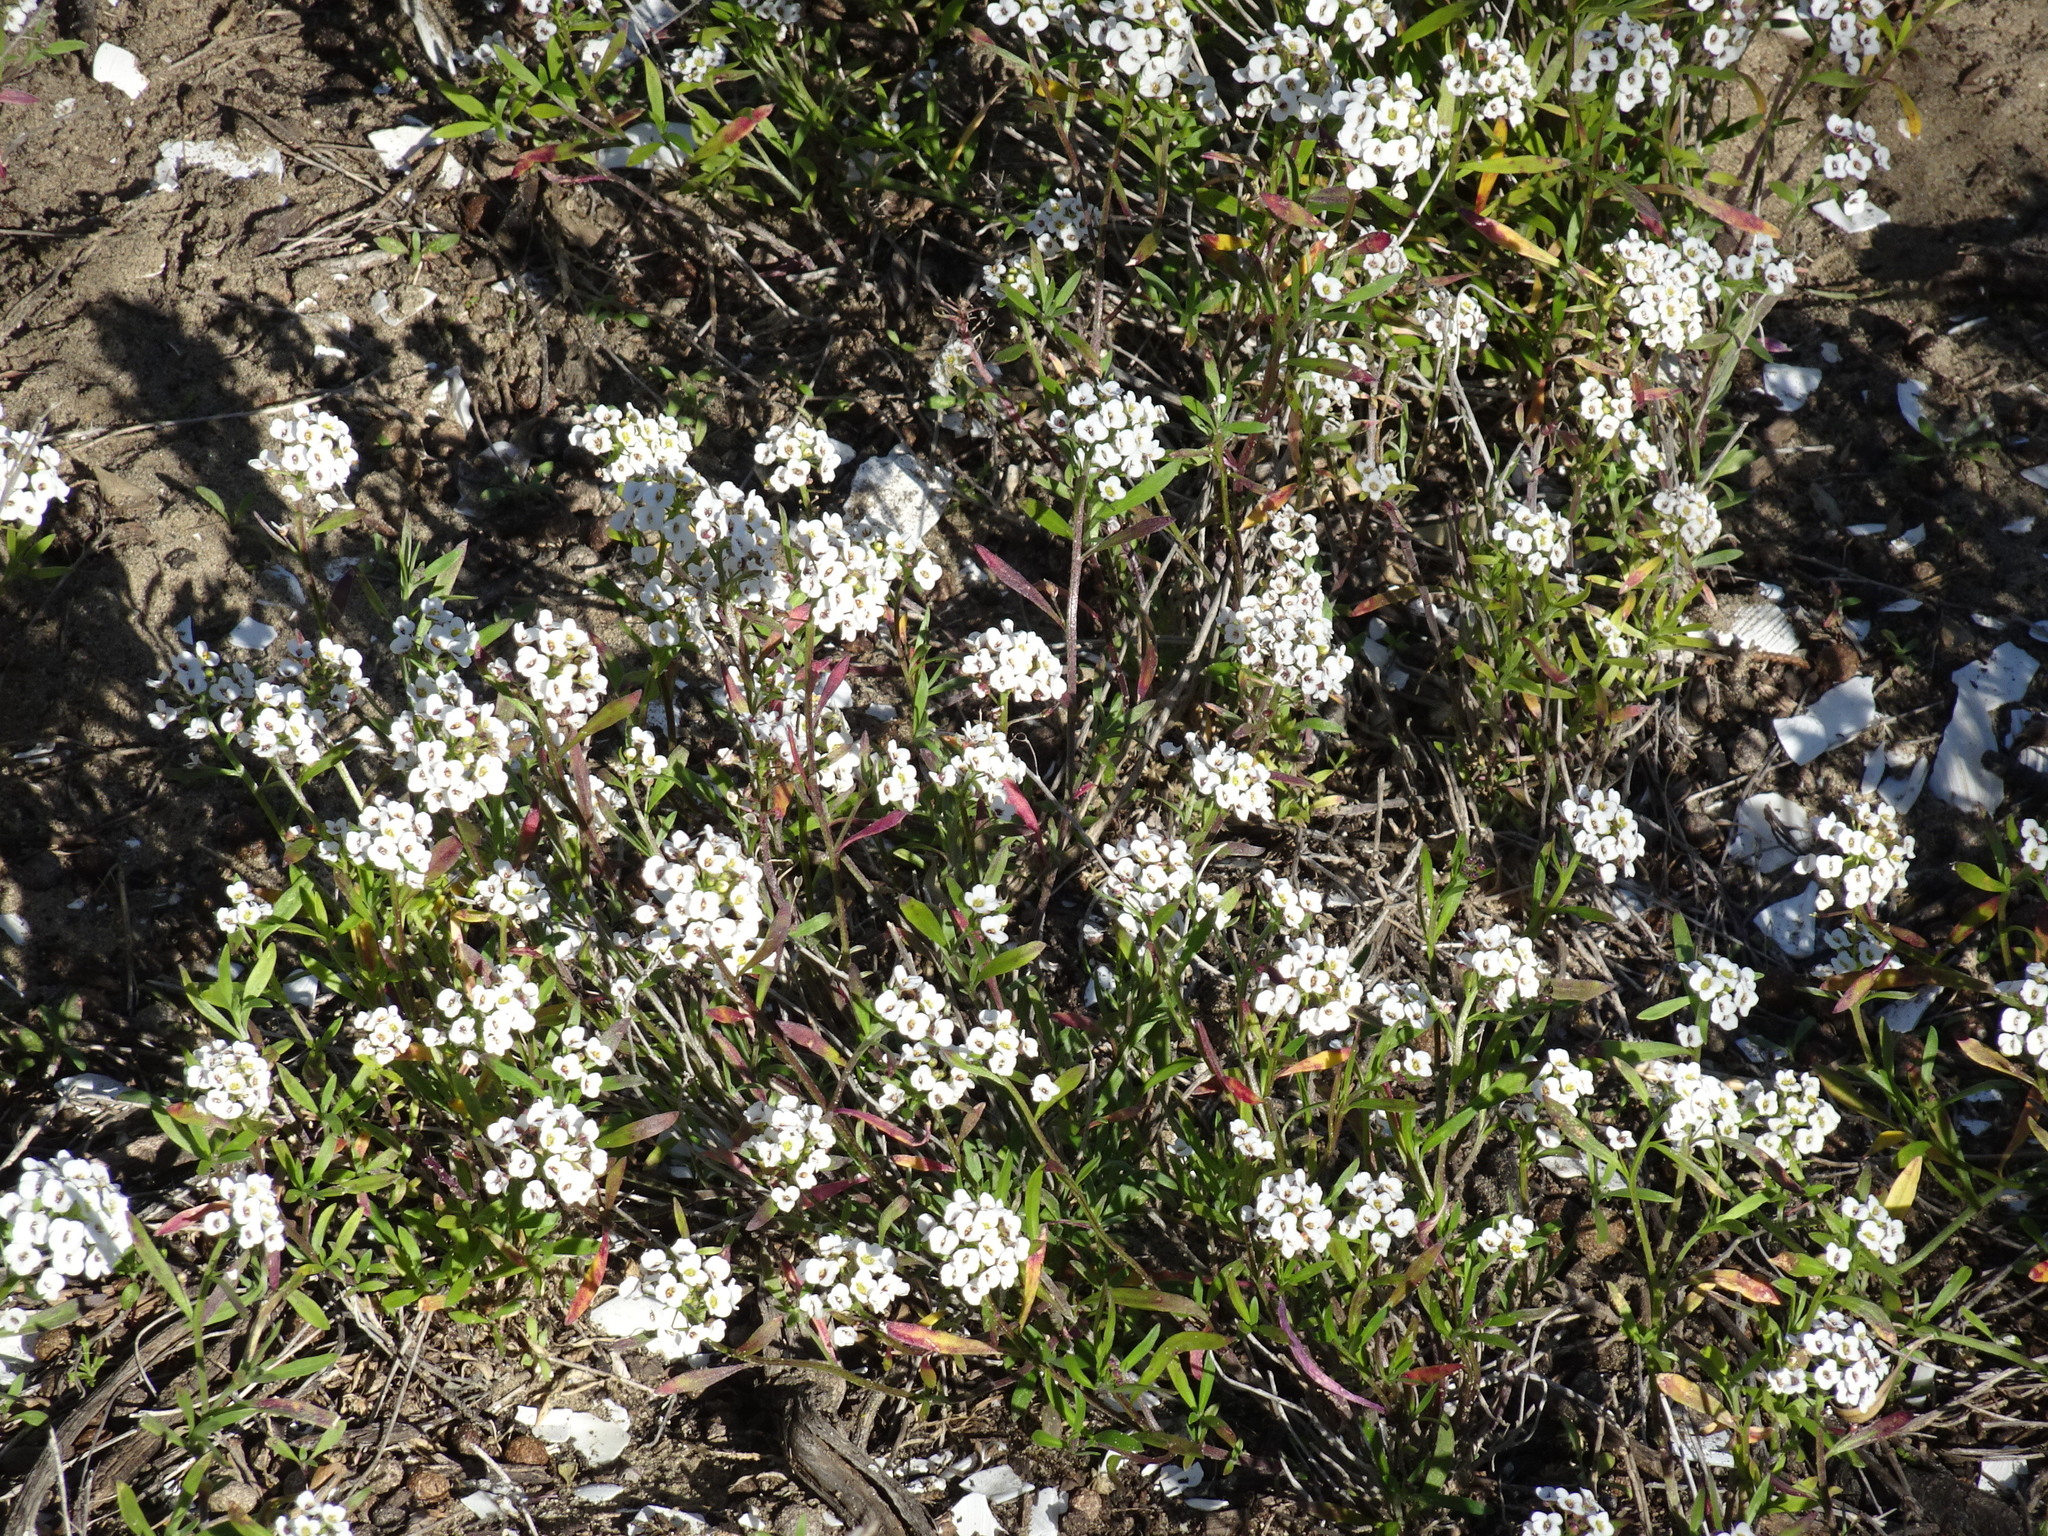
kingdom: Plantae
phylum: Tracheophyta
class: Magnoliopsida
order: Brassicales
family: Brassicaceae
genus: Lobularia
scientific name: Lobularia maritima
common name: Sweet alison
